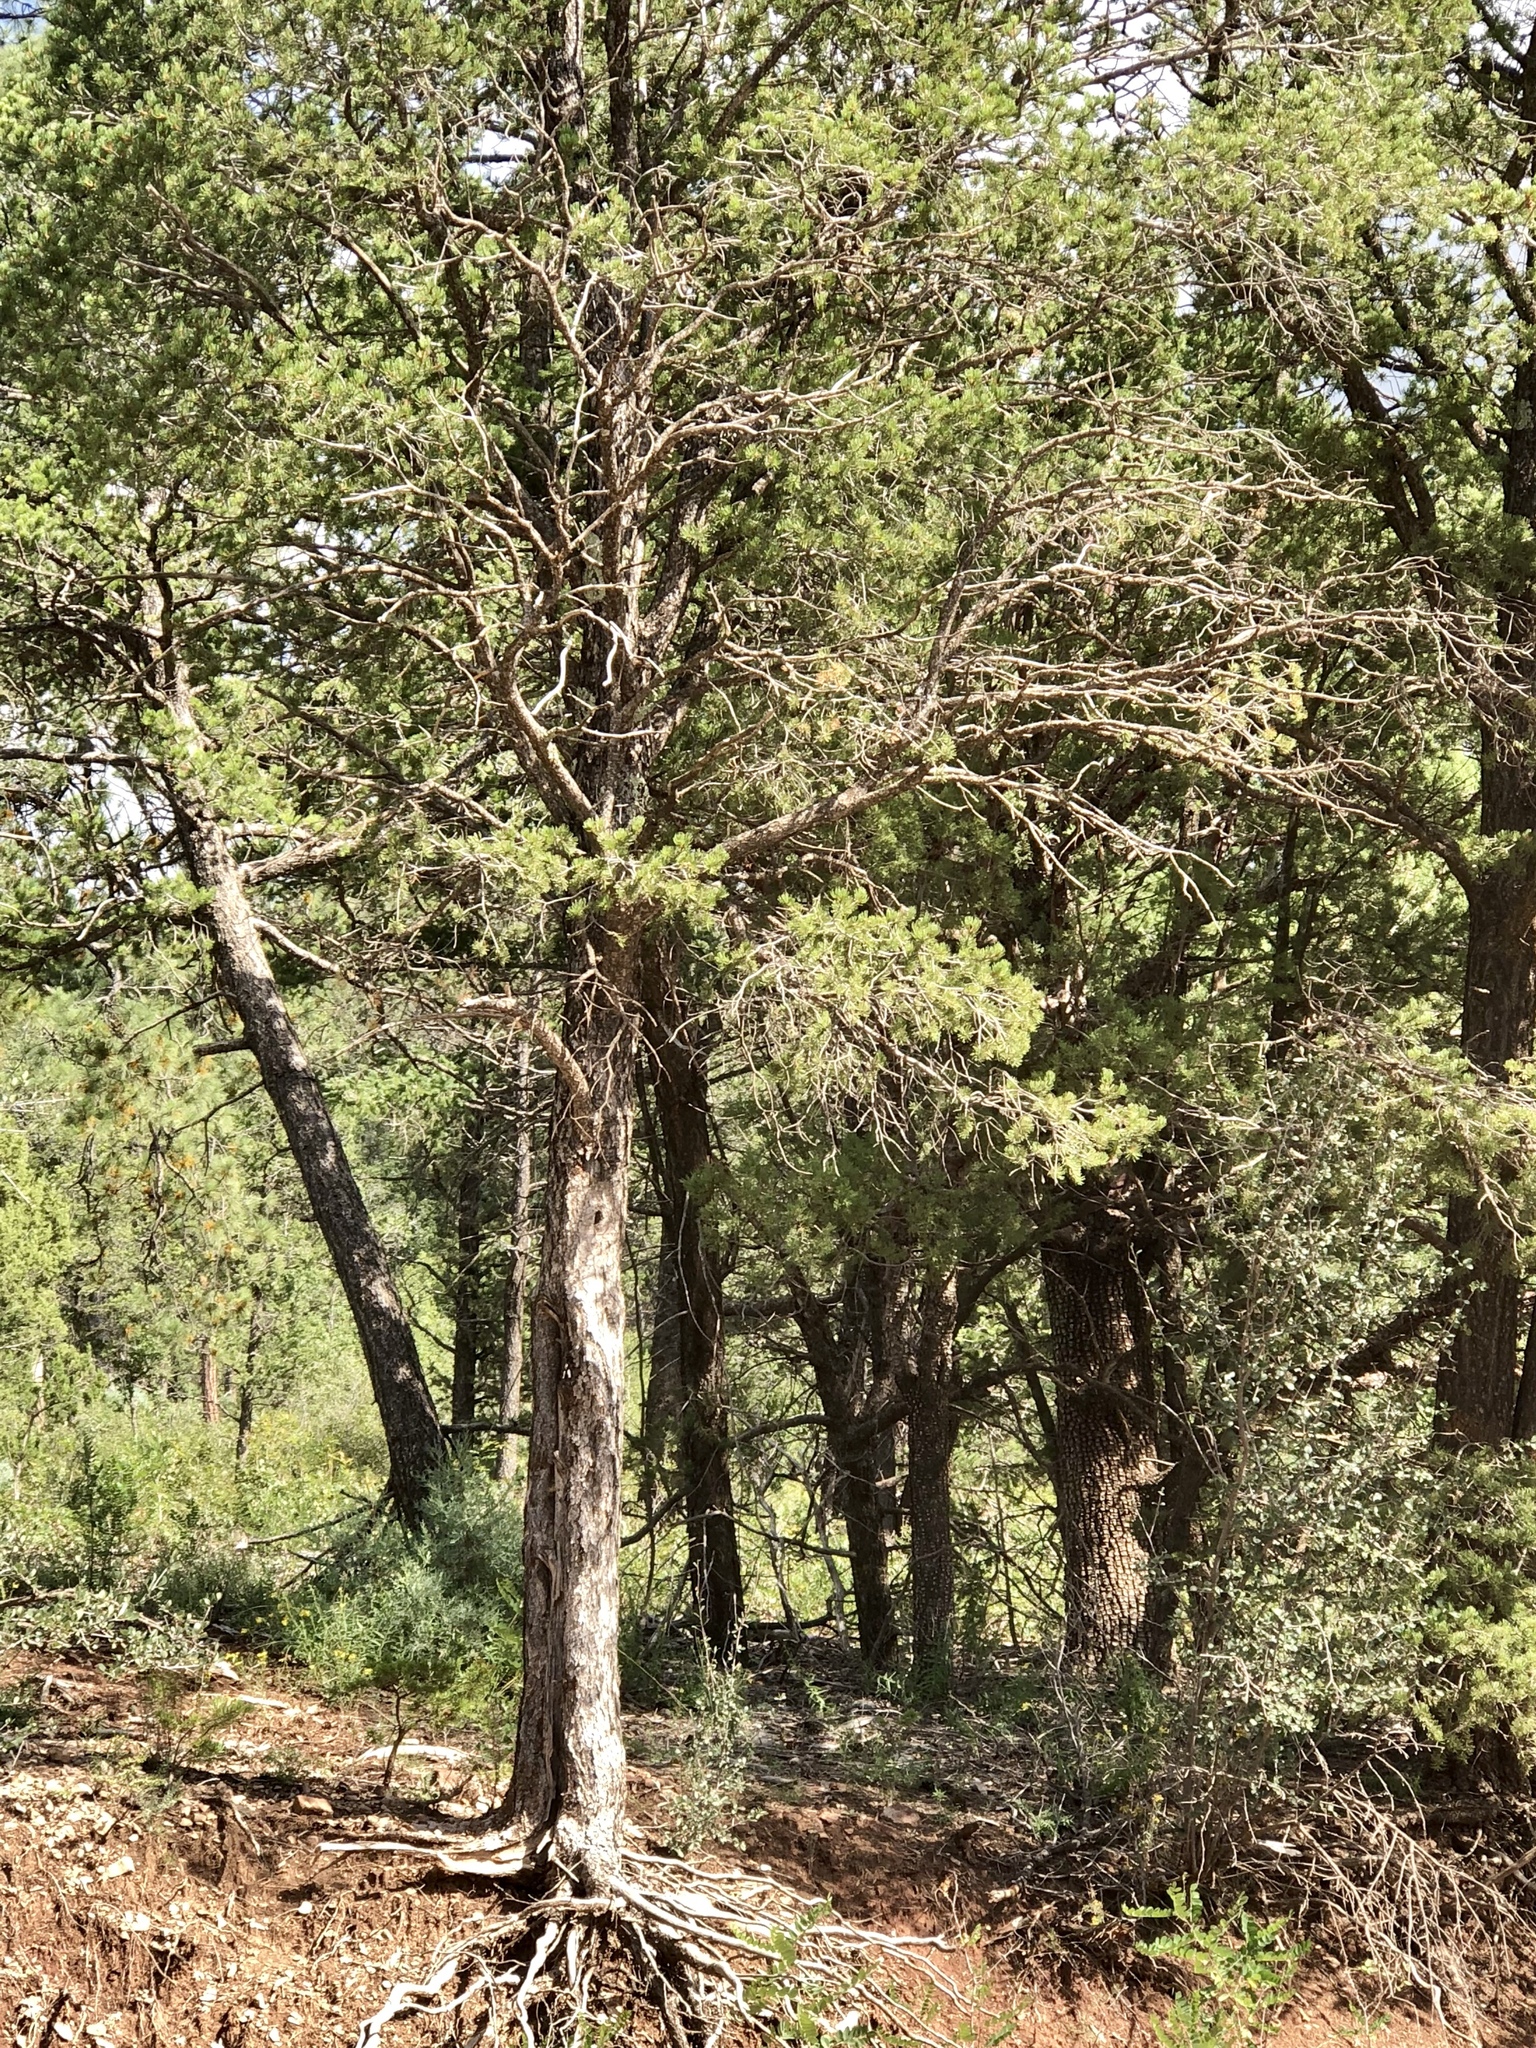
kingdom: Plantae
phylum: Tracheophyta
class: Pinopsida
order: Pinales
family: Pinaceae
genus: Pinus
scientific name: Pinus edulis
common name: Colorado pinyon
